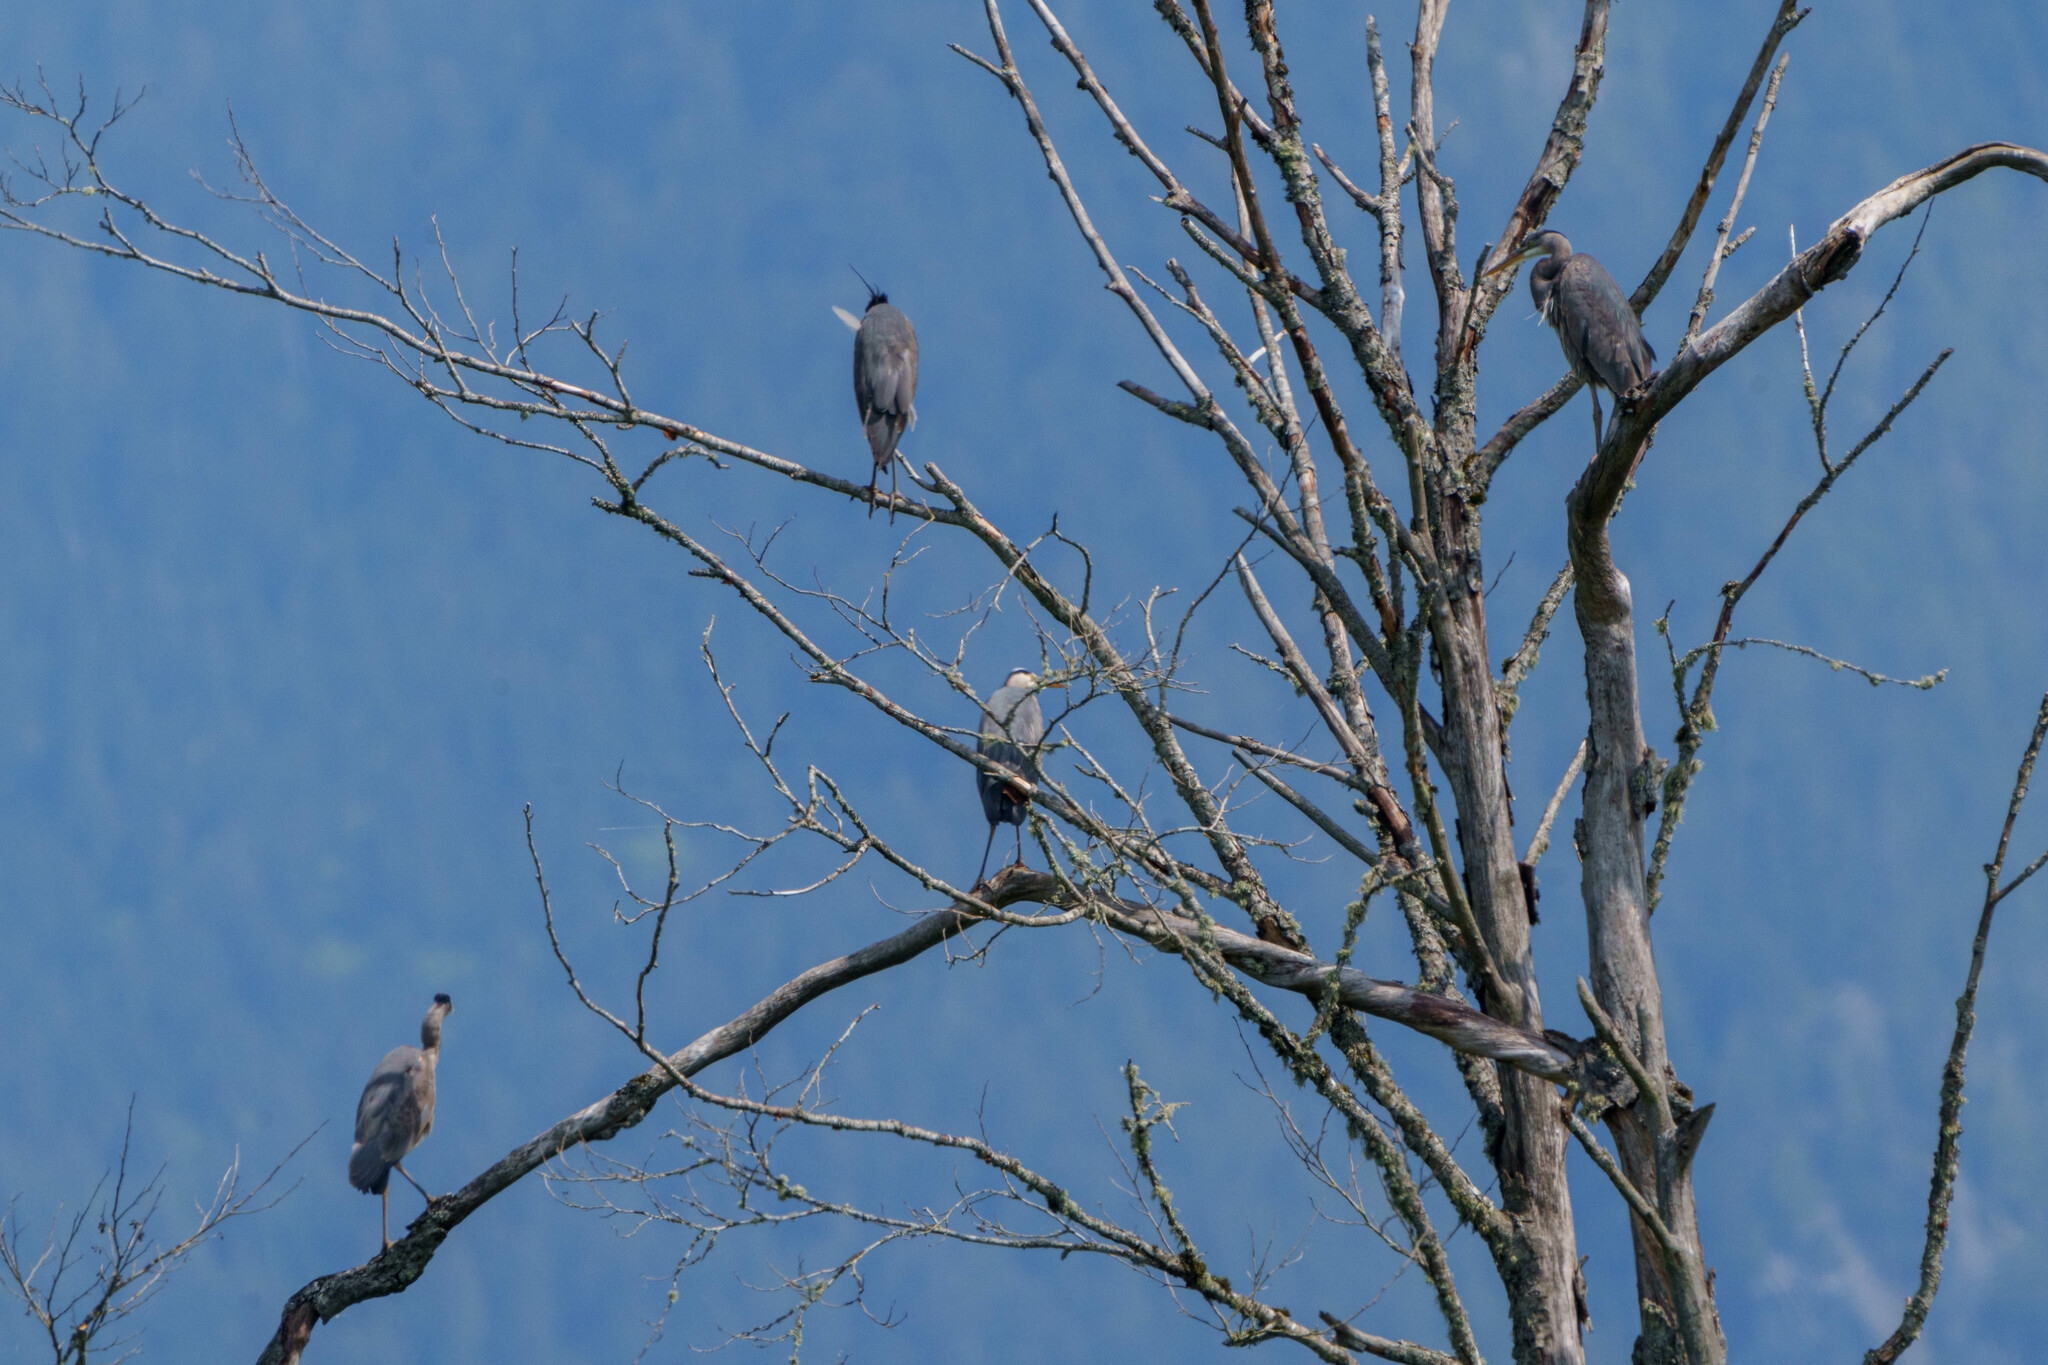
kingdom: Animalia
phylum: Chordata
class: Aves
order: Pelecaniformes
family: Ardeidae
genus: Ardea
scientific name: Ardea herodias
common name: Great blue heron
